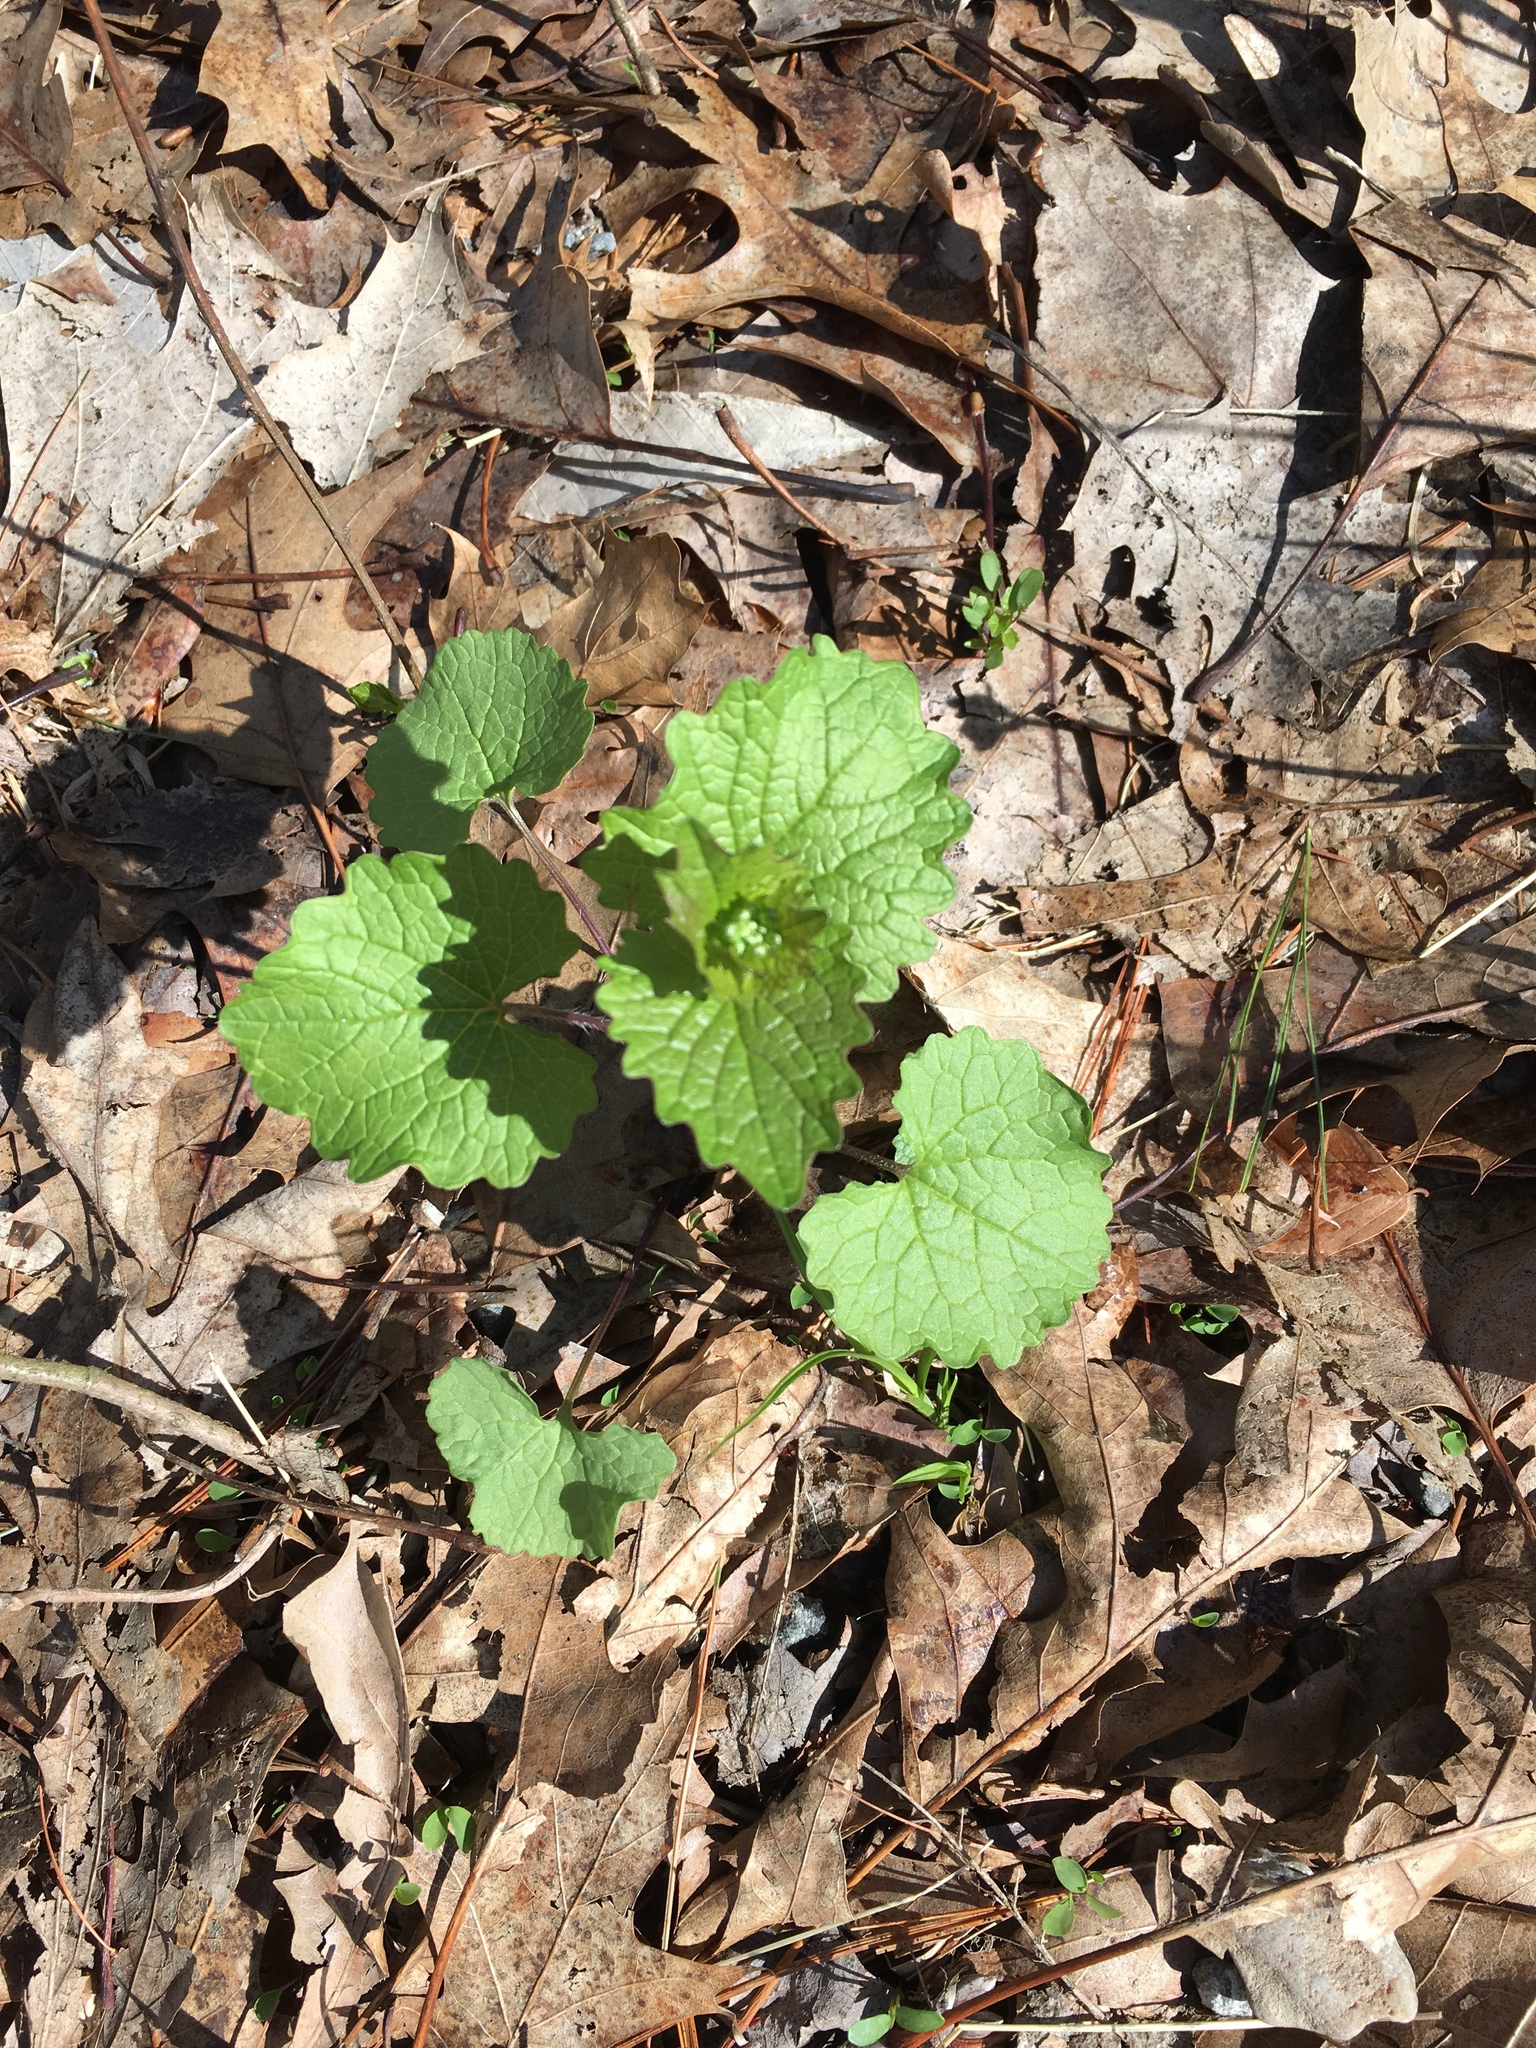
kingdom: Plantae
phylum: Tracheophyta
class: Magnoliopsida
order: Brassicales
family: Brassicaceae
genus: Alliaria
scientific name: Alliaria petiolata
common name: Garlic mustard
